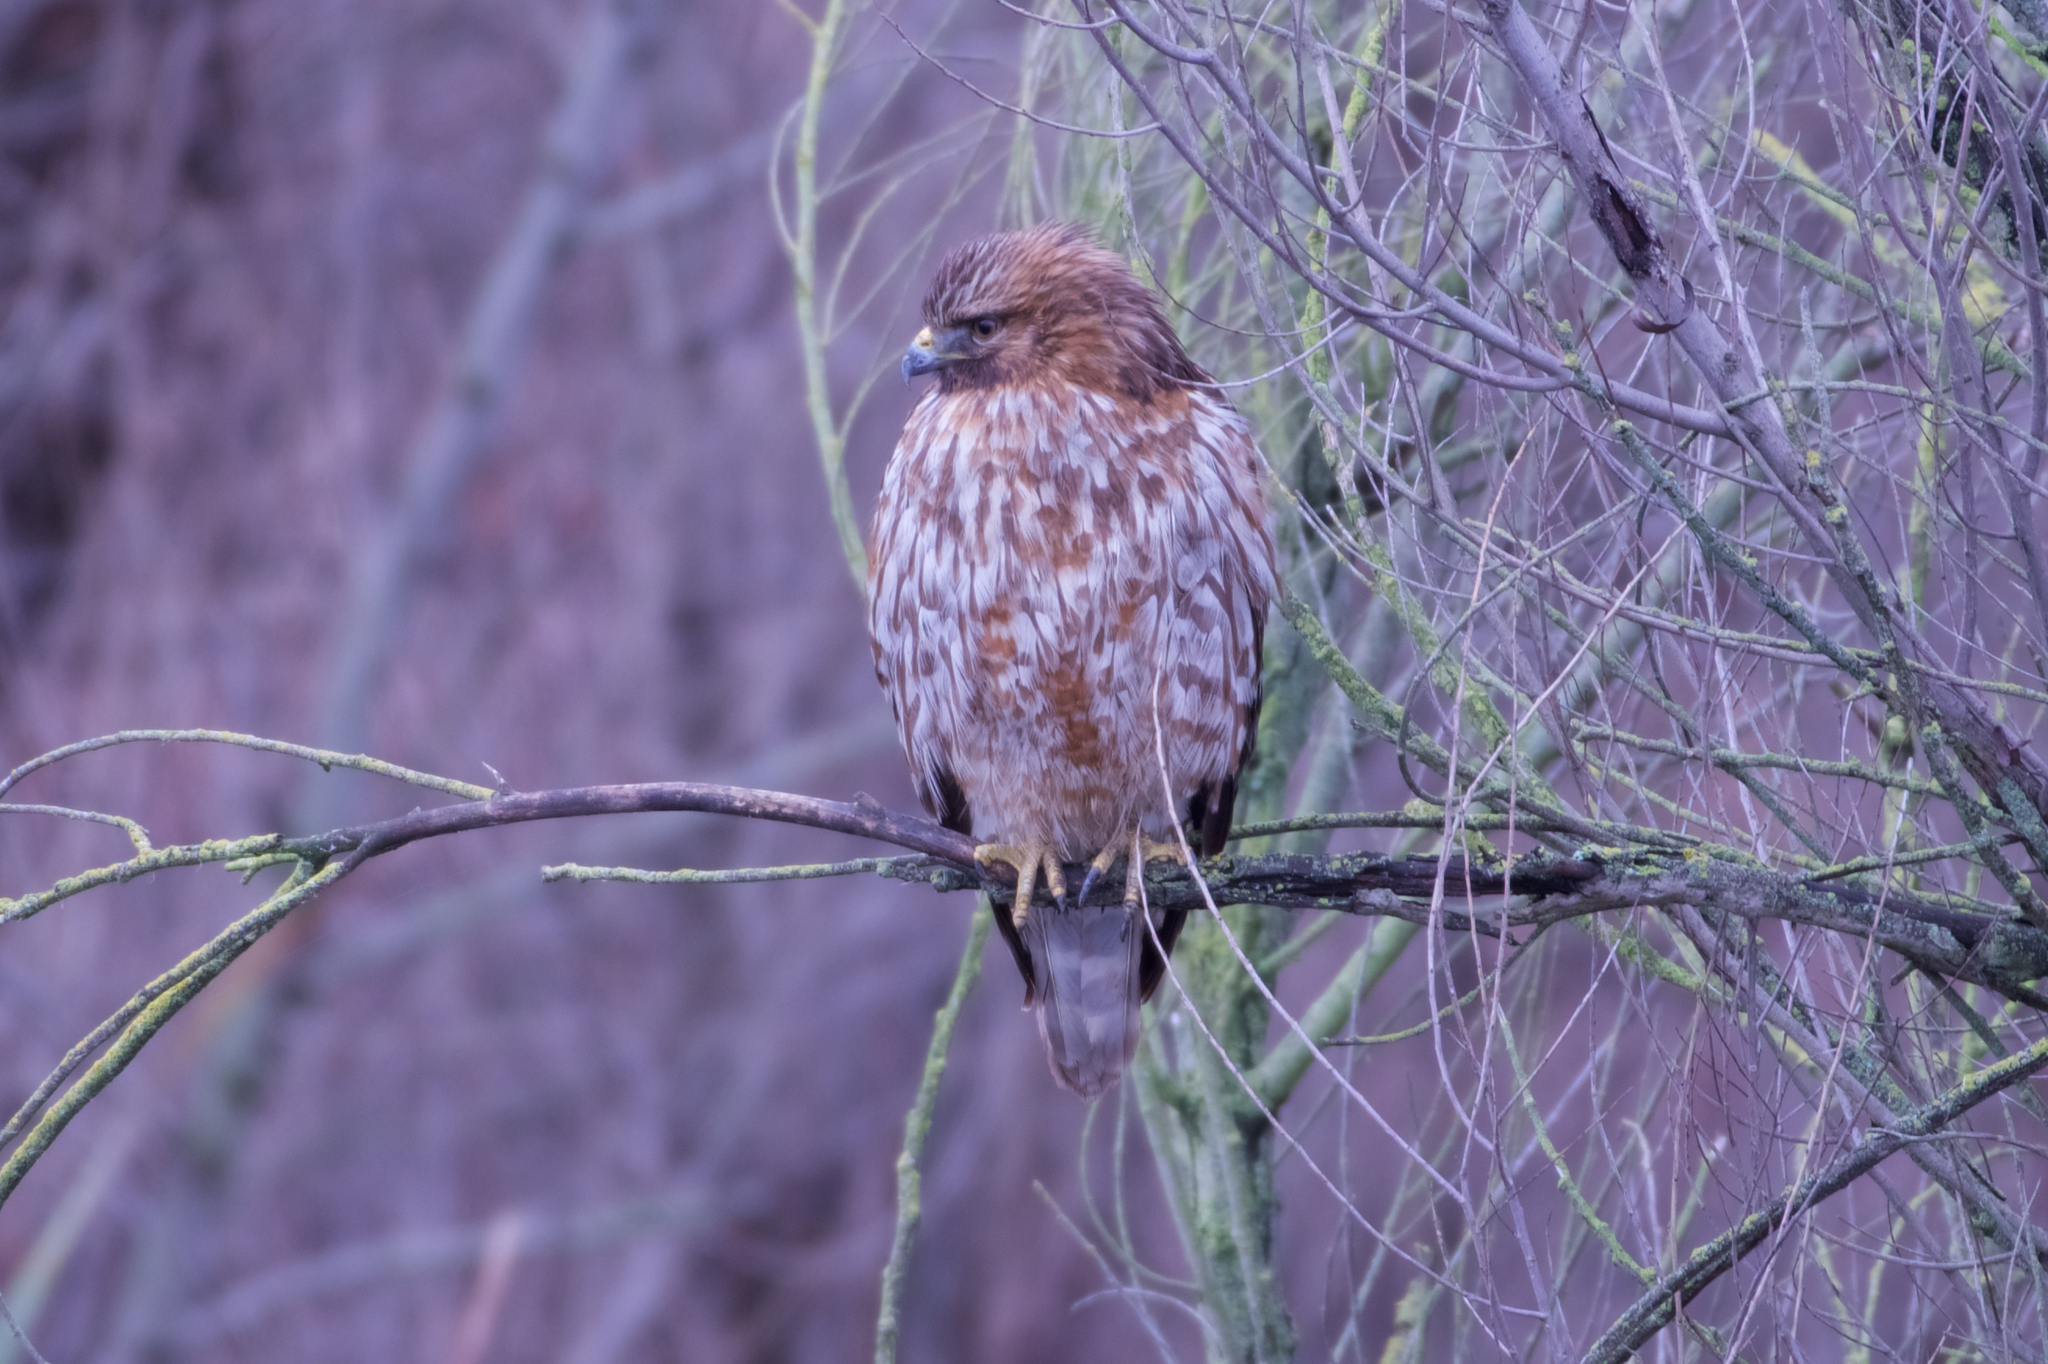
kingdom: Animalia
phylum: Chordata
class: Aves
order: Accipitriformes
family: Accipitridae
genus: Buteo
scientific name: Buteo lineatus
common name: Red-shouldered hawk
